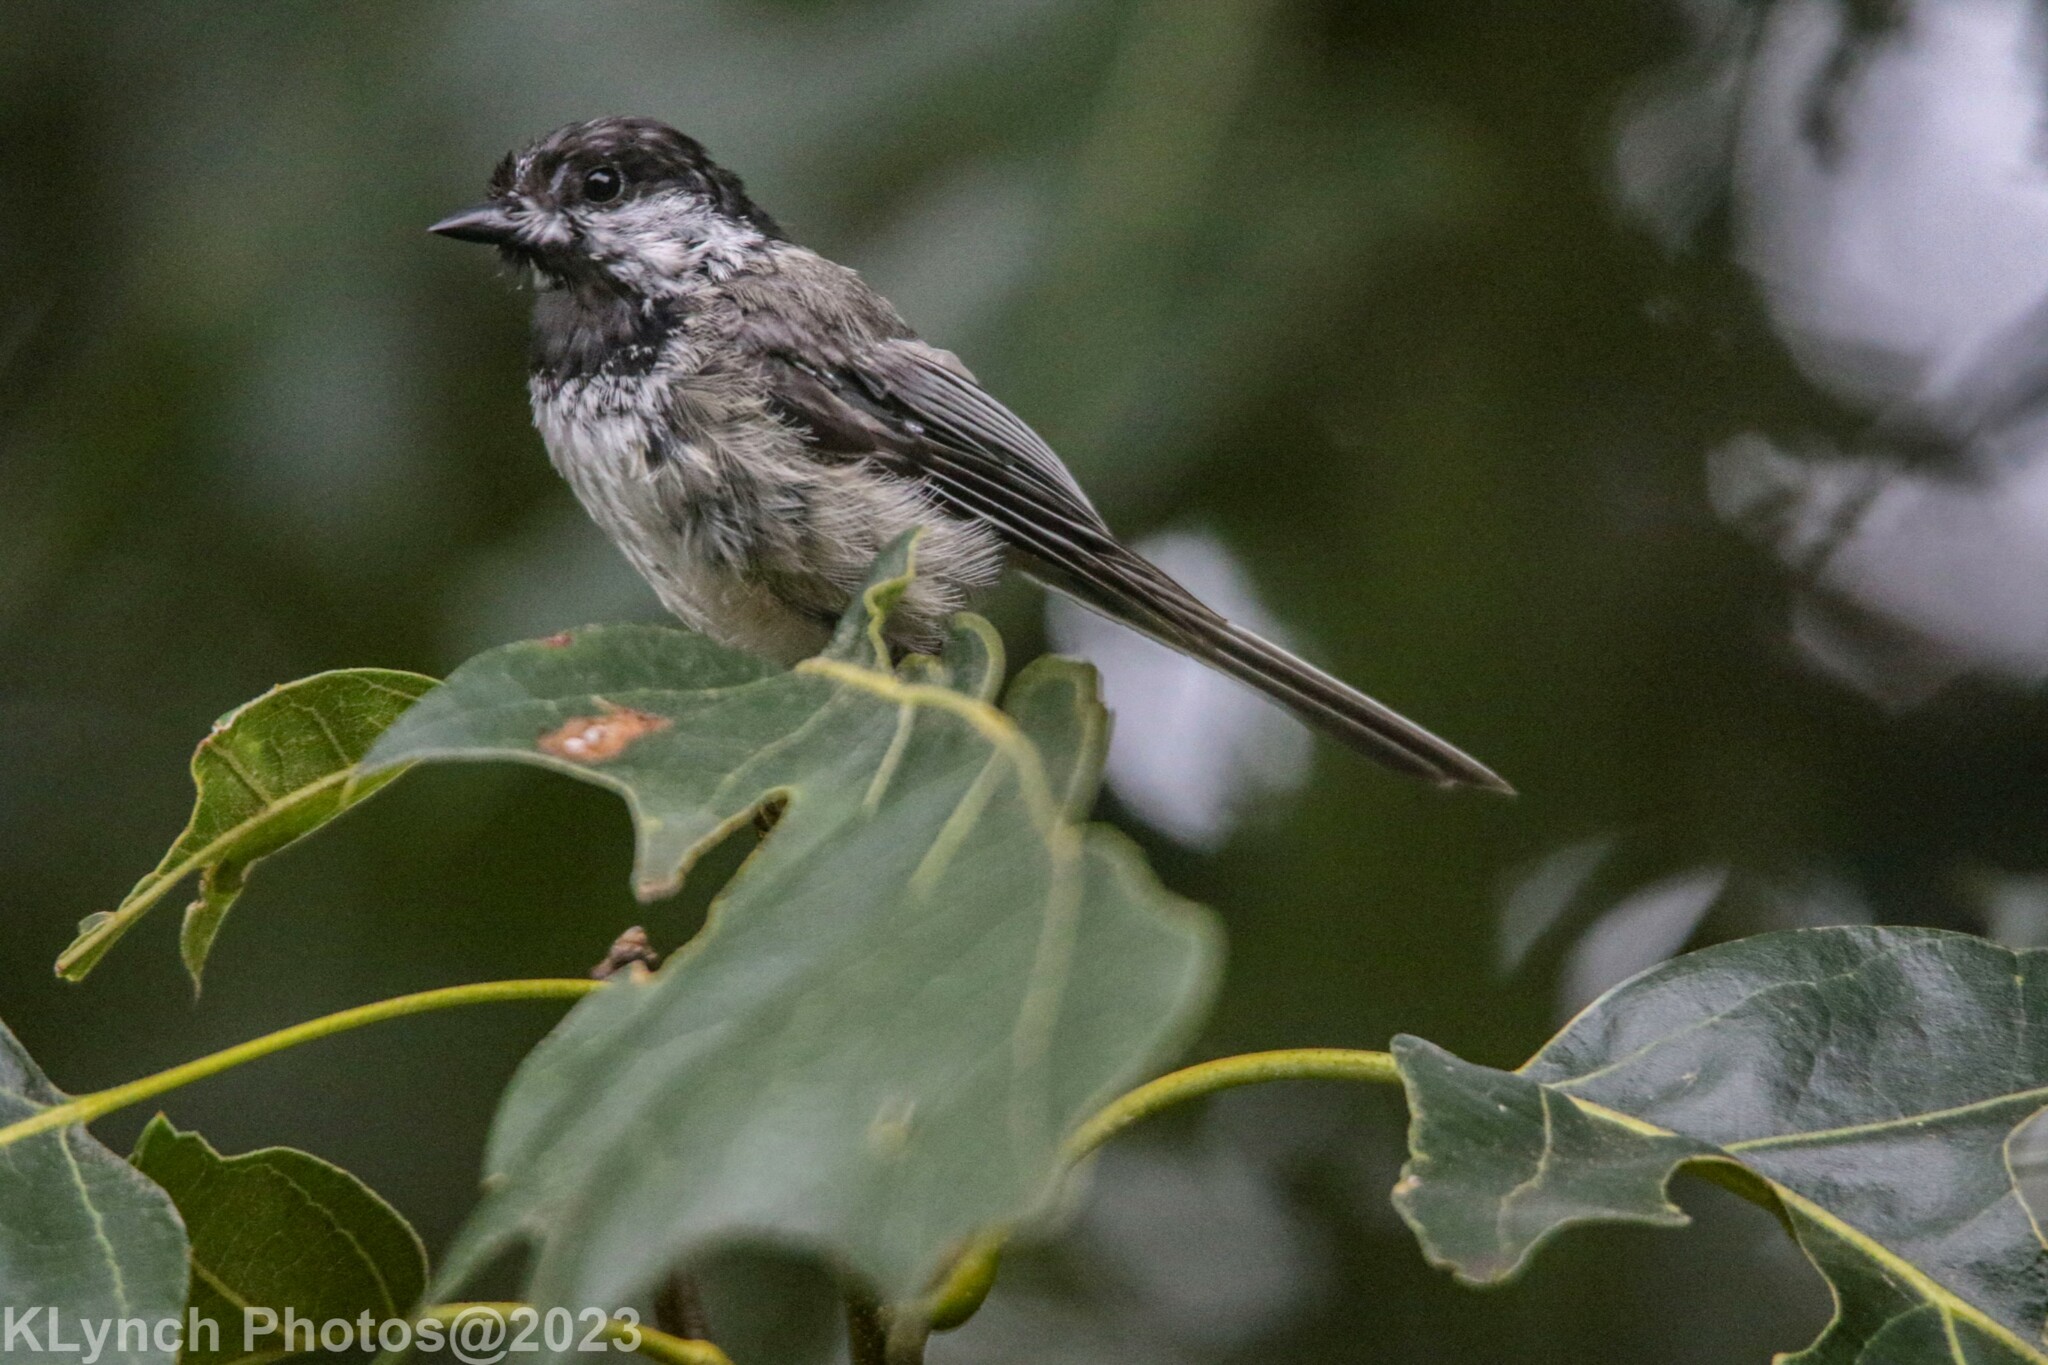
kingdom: Animalia
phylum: Chordata
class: Aves
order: Passeriformes
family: Paridae
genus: Poecile
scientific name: Poecile atricapillus
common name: Black-capped chickadee
